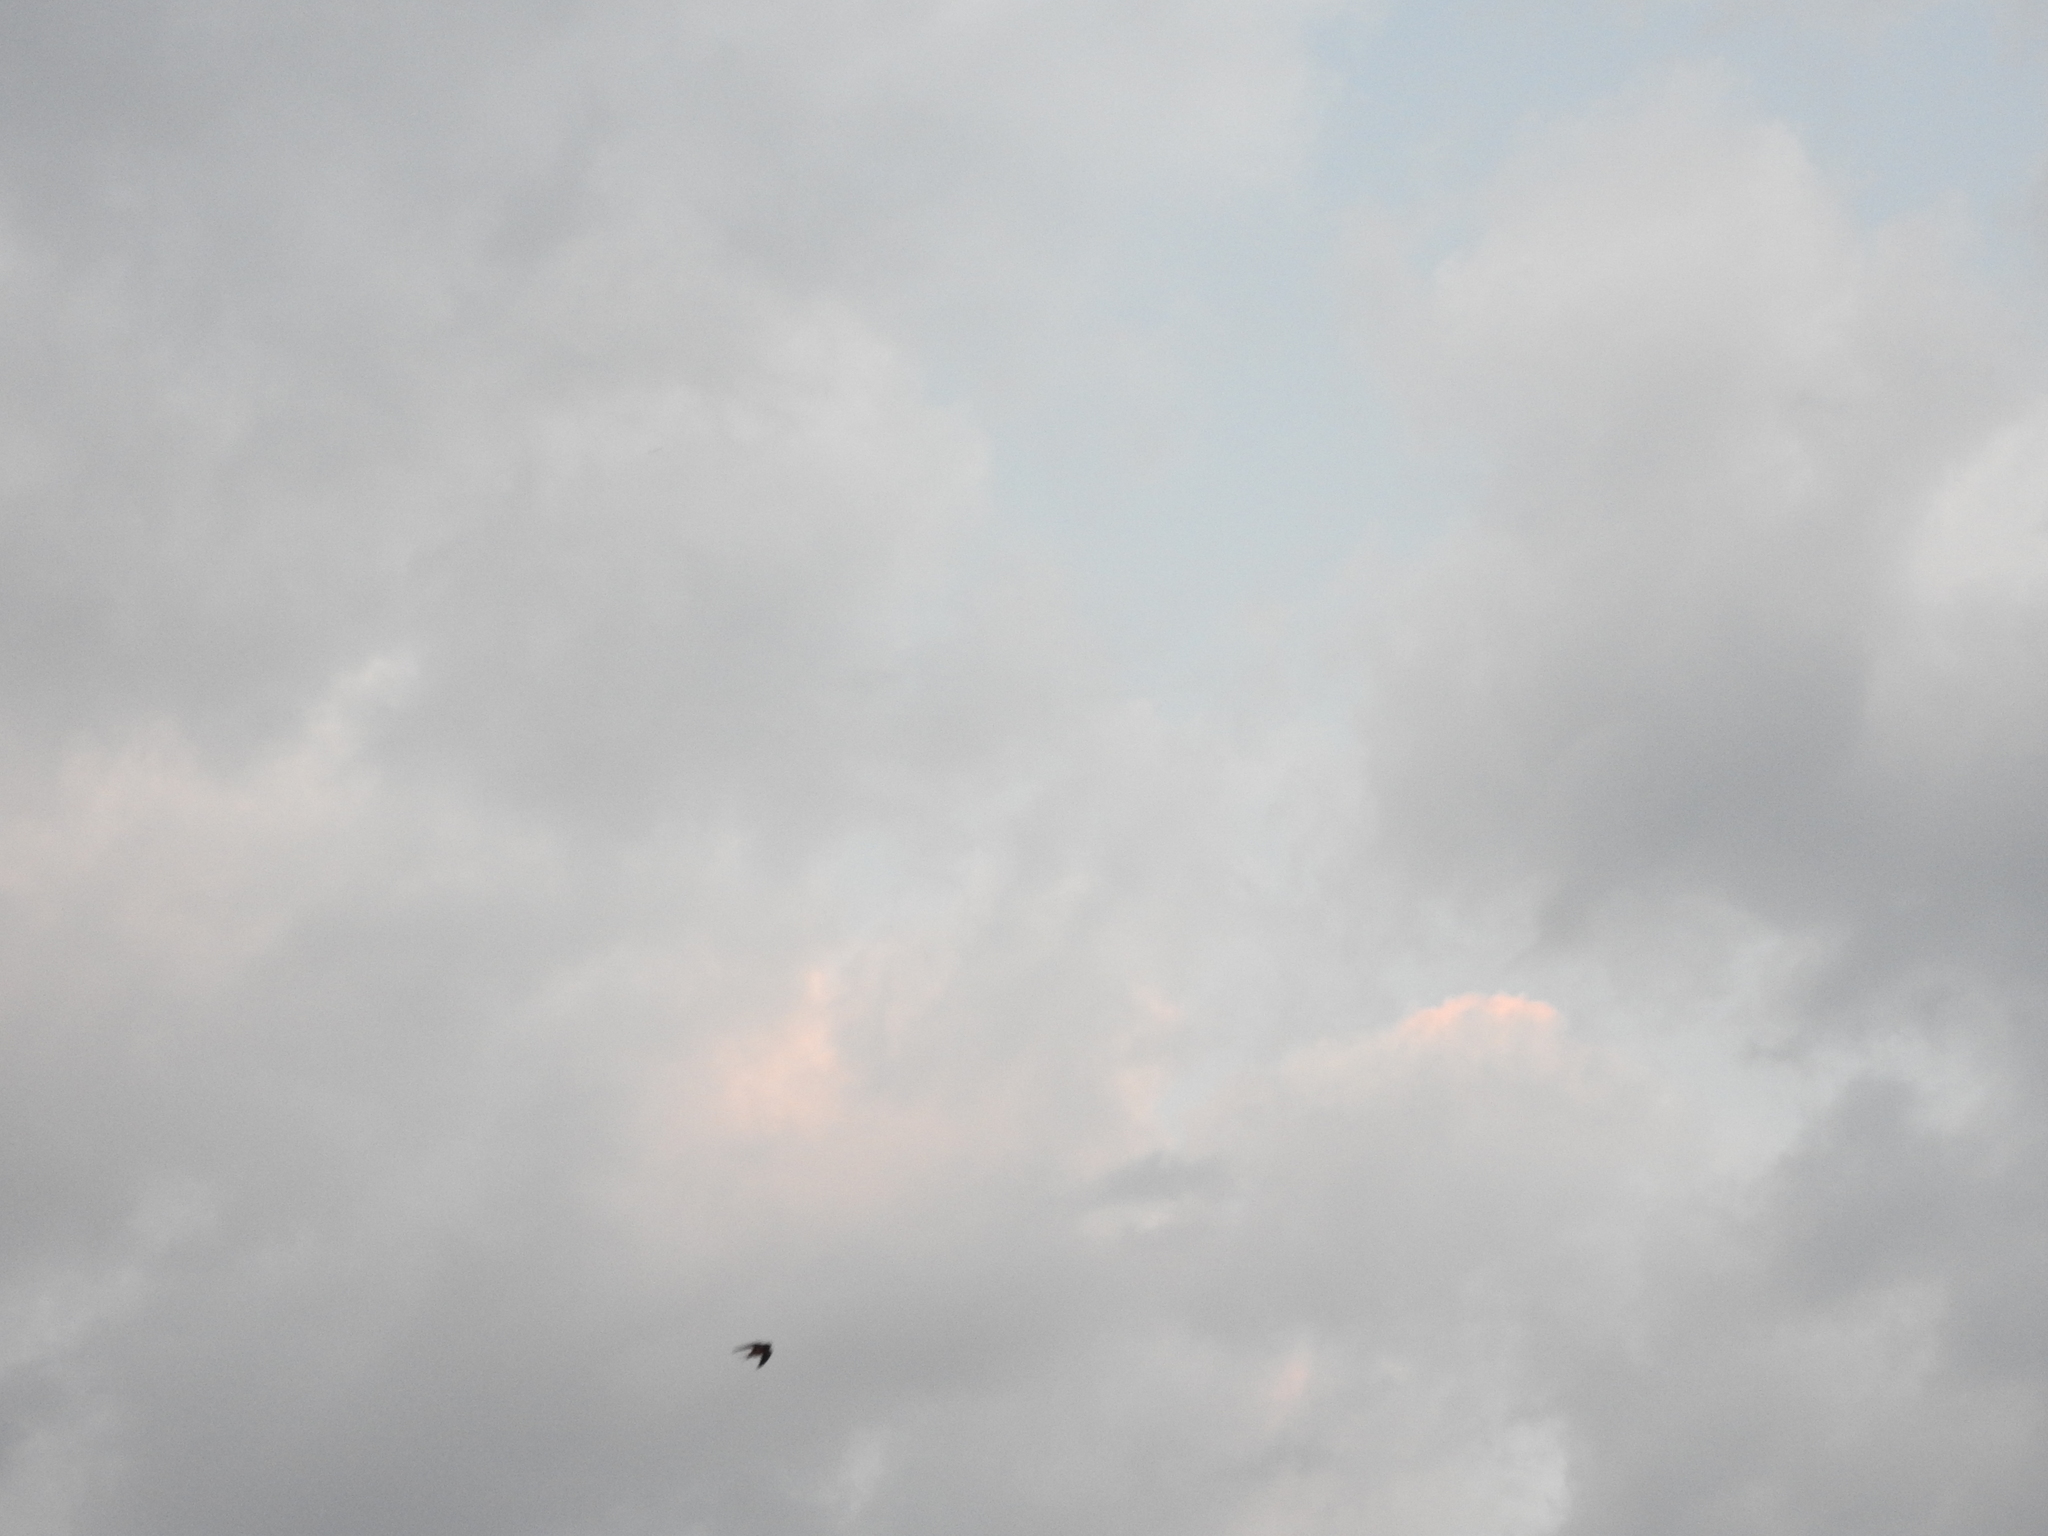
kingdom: Animalia
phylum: Chordata
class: Aves
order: Passeriformes
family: Hirundinidae
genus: Hirundo
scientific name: Hirundo rustica
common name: Barn swallow
